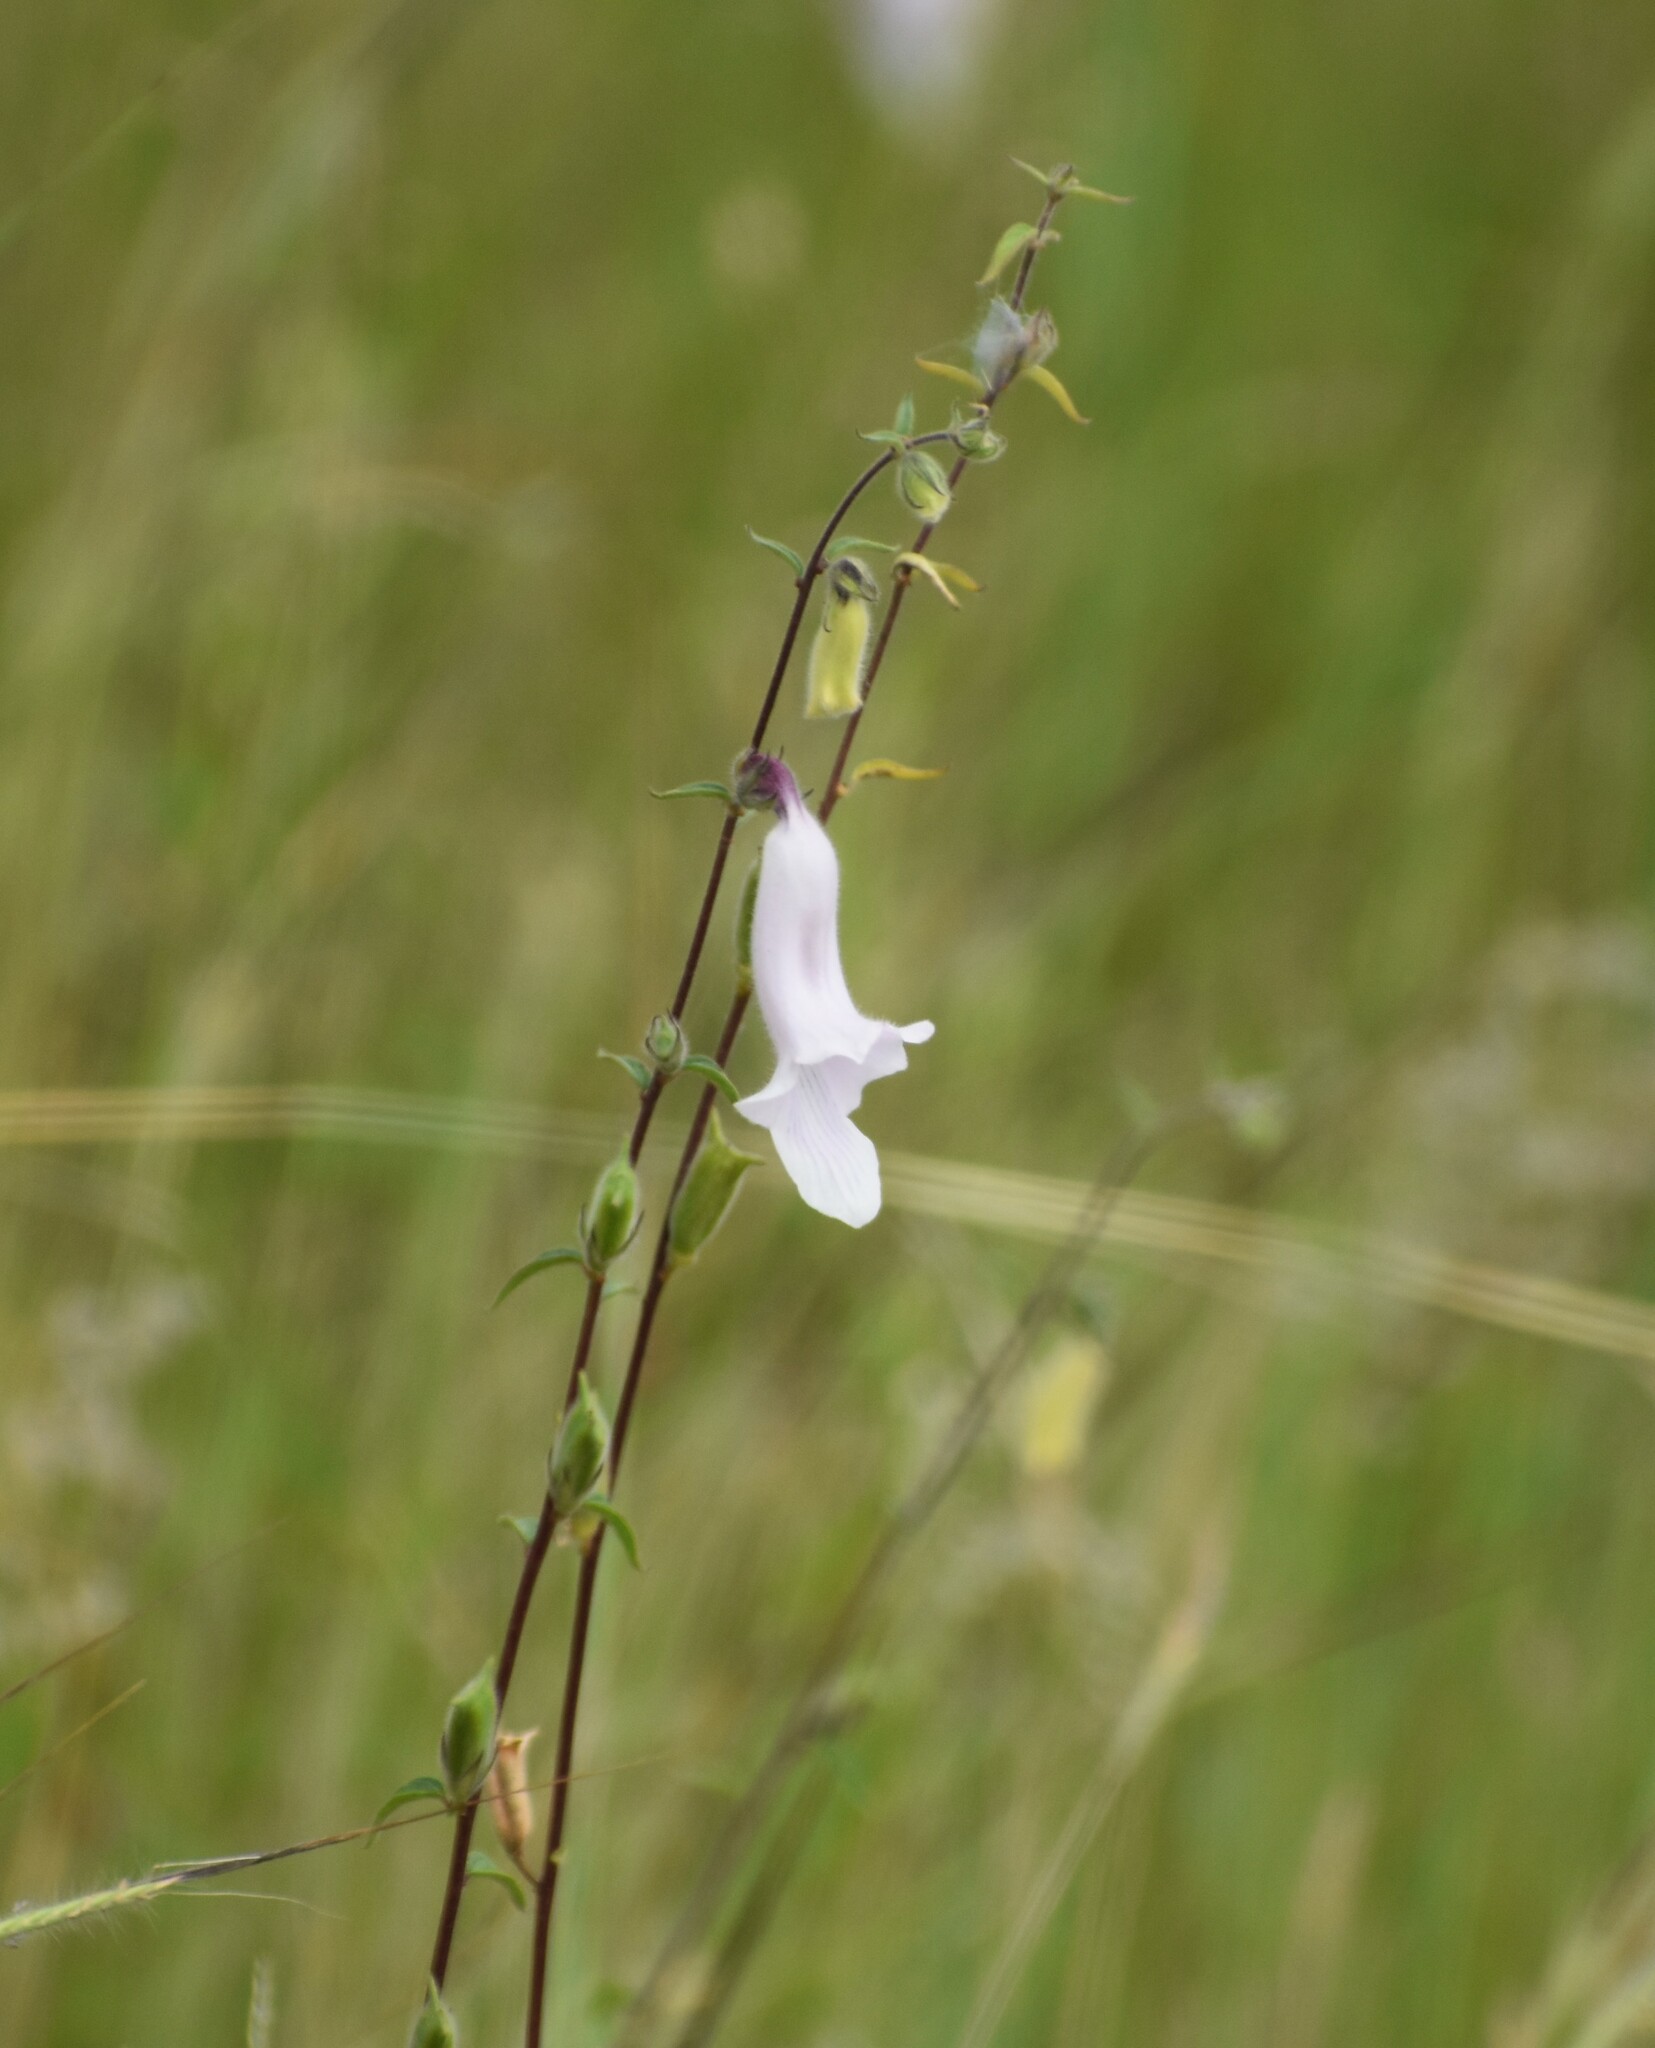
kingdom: Plantae
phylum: Tracheophyta
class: Magnoliopsida
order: Lamiales
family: Pedaliaceae
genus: Sesamum
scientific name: Sesamum trilobum
